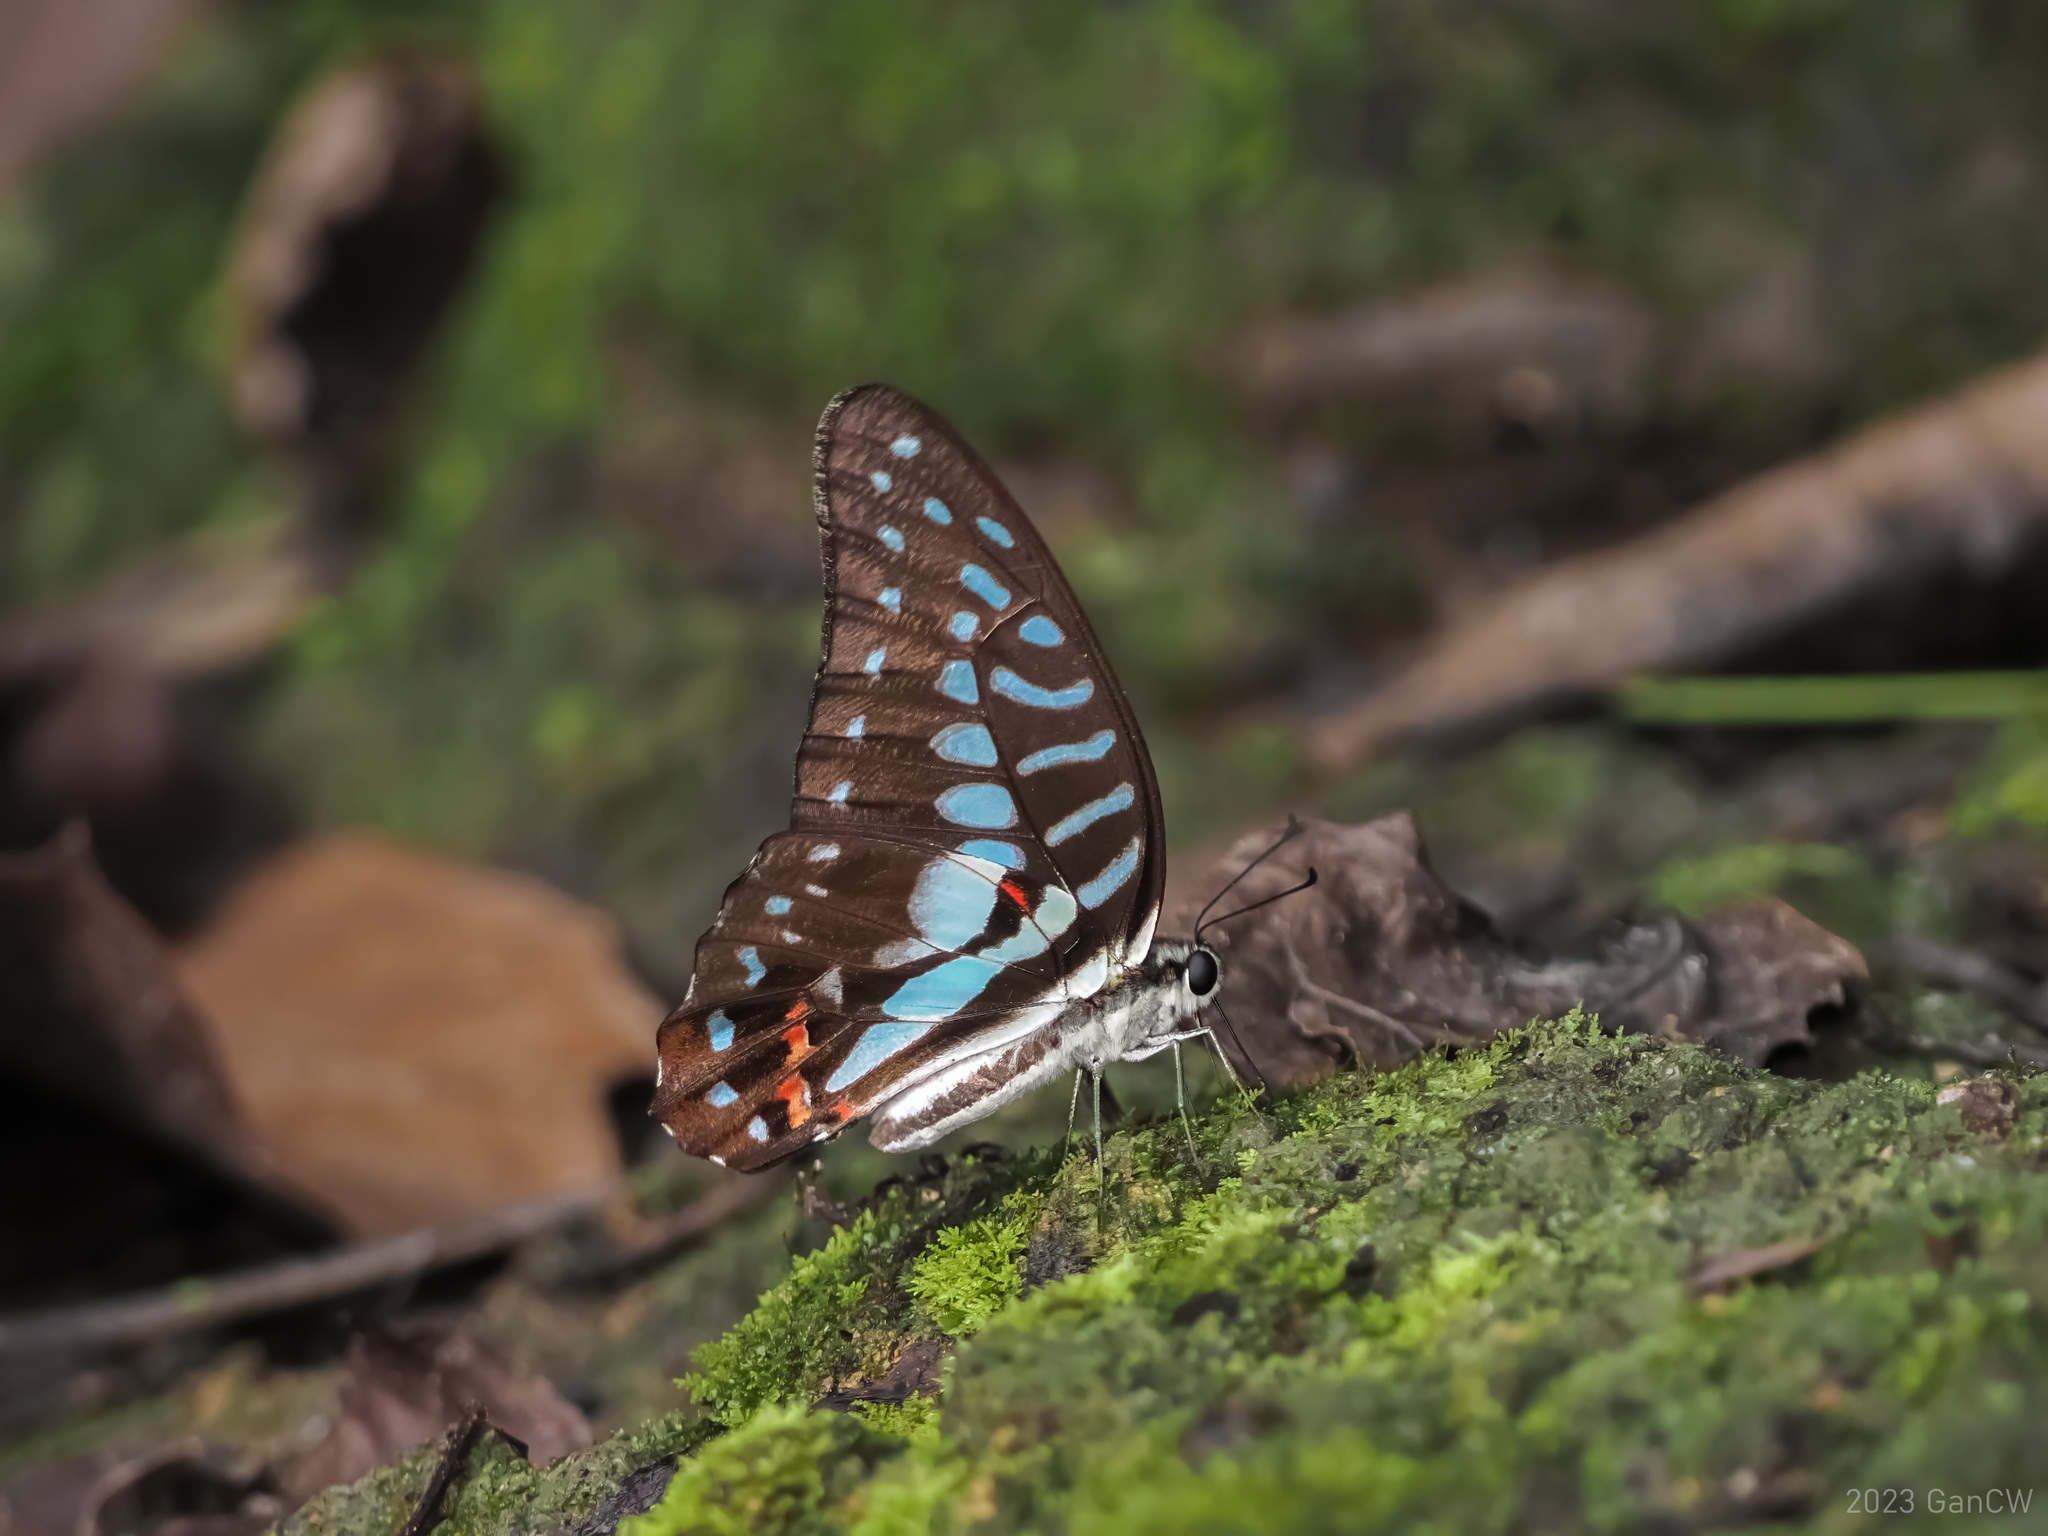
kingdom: Animalia
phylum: Arthropoda
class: Insecta
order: Lepidoptera
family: Papilionidae
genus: Graphium
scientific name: Graphium meyeri
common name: Meyer's triangle
